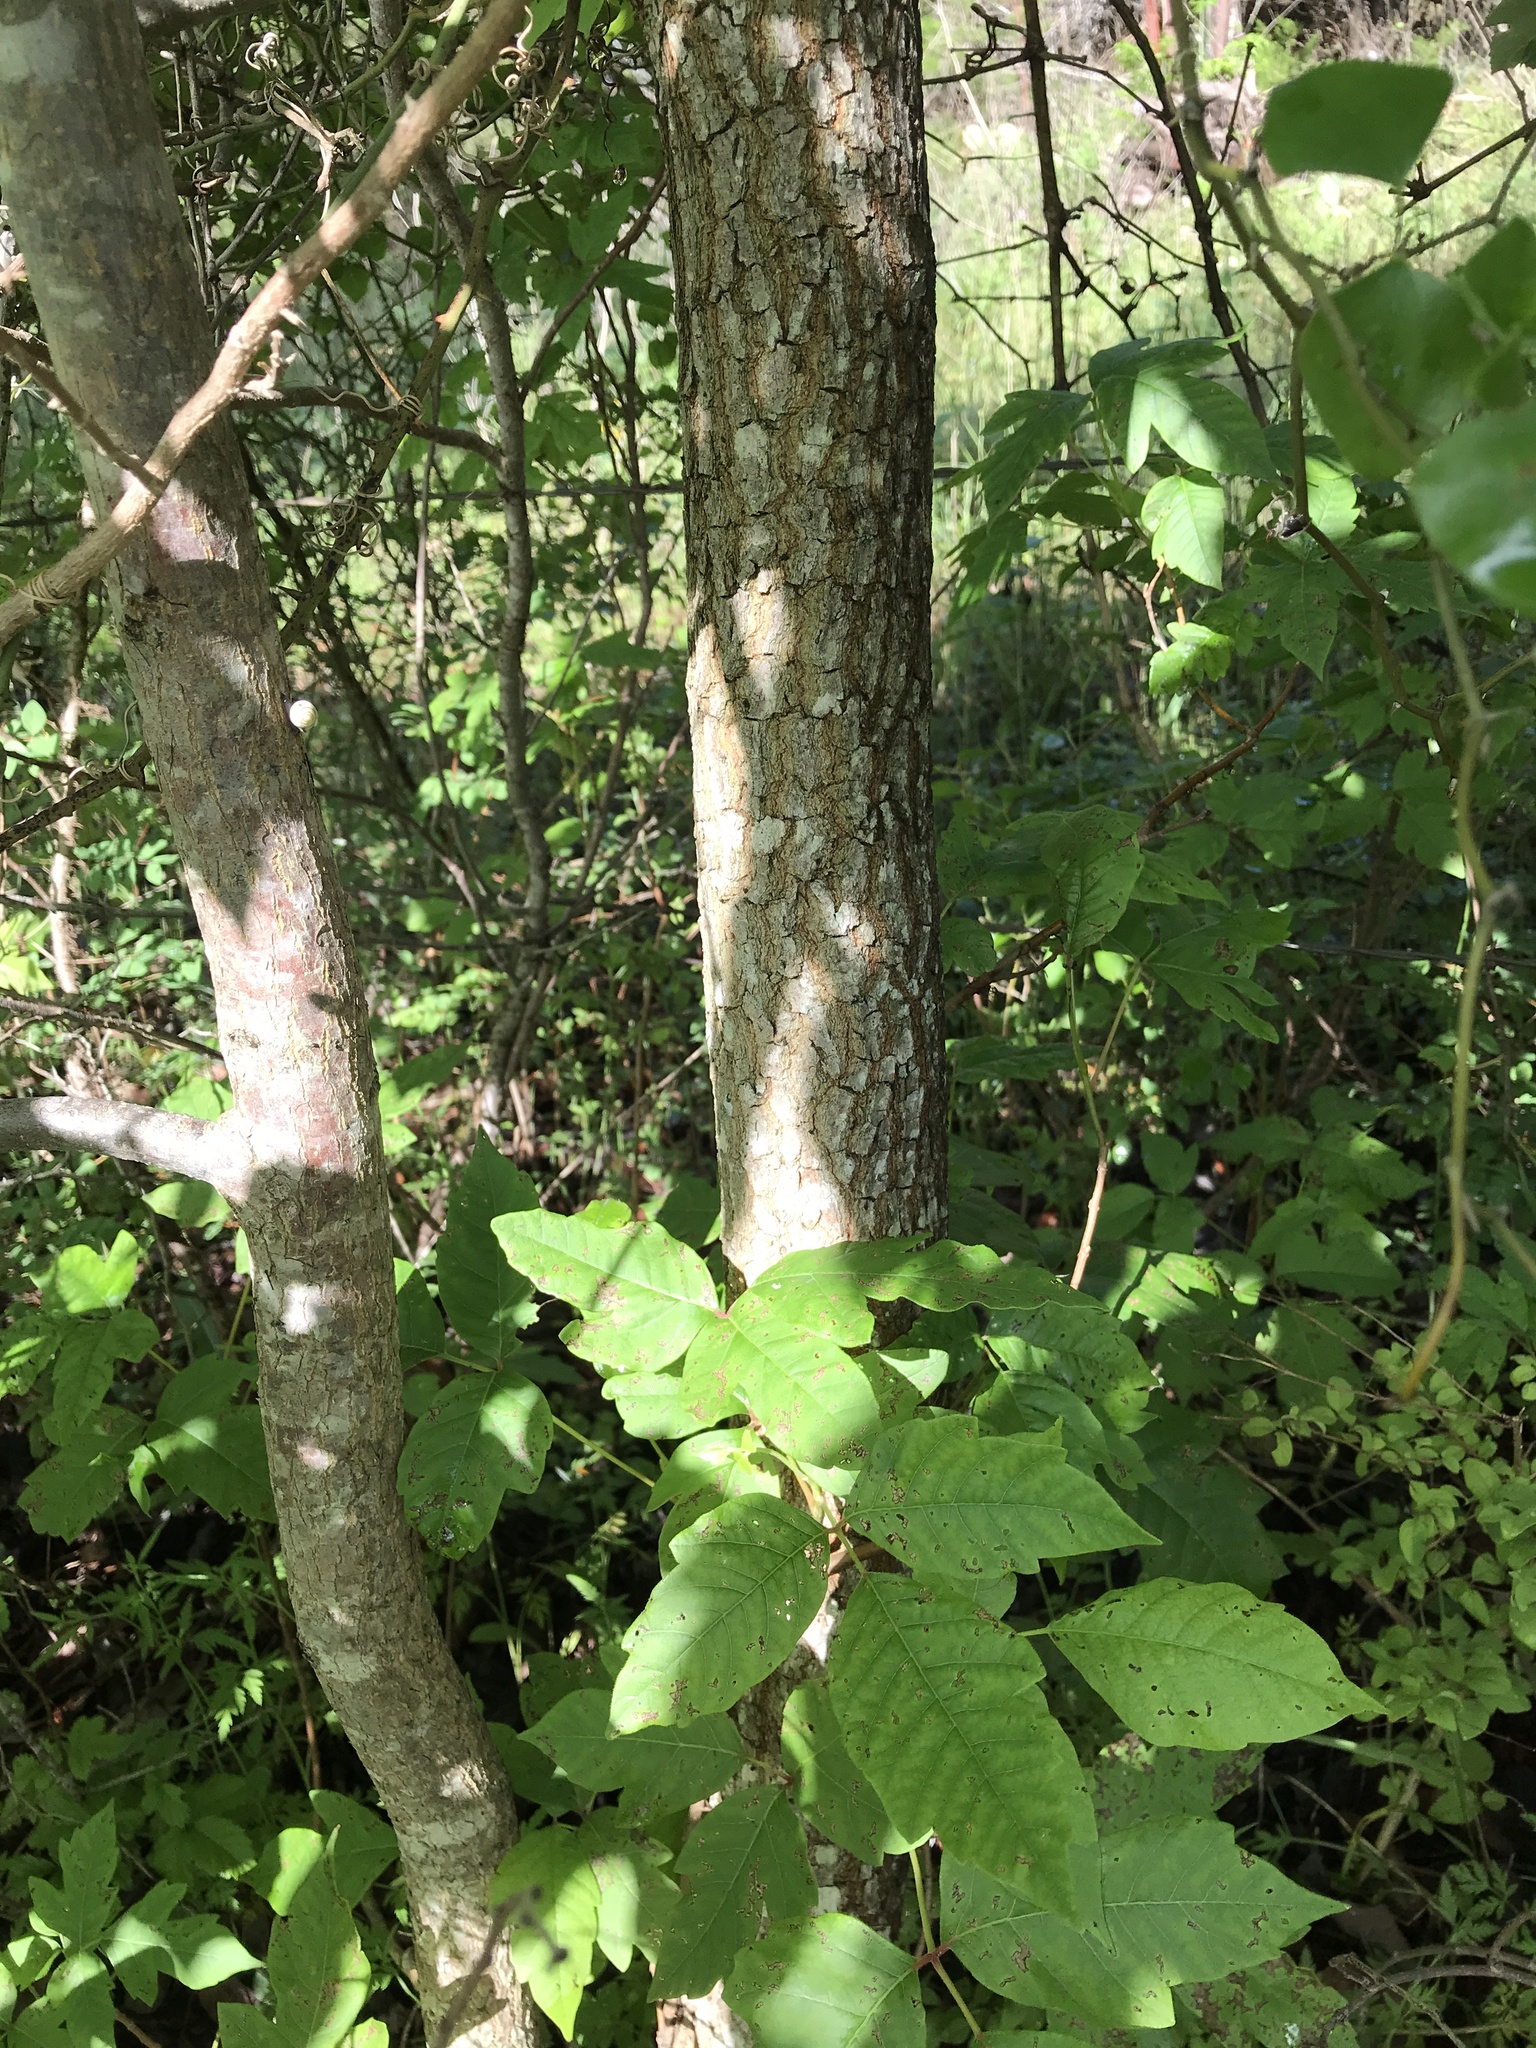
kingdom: Plantae
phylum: Tracheophyta
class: Magnoliopsida
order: Ericales
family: Ebenaceae
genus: Diospyros
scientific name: Diospyros virginiana
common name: Persimmon
